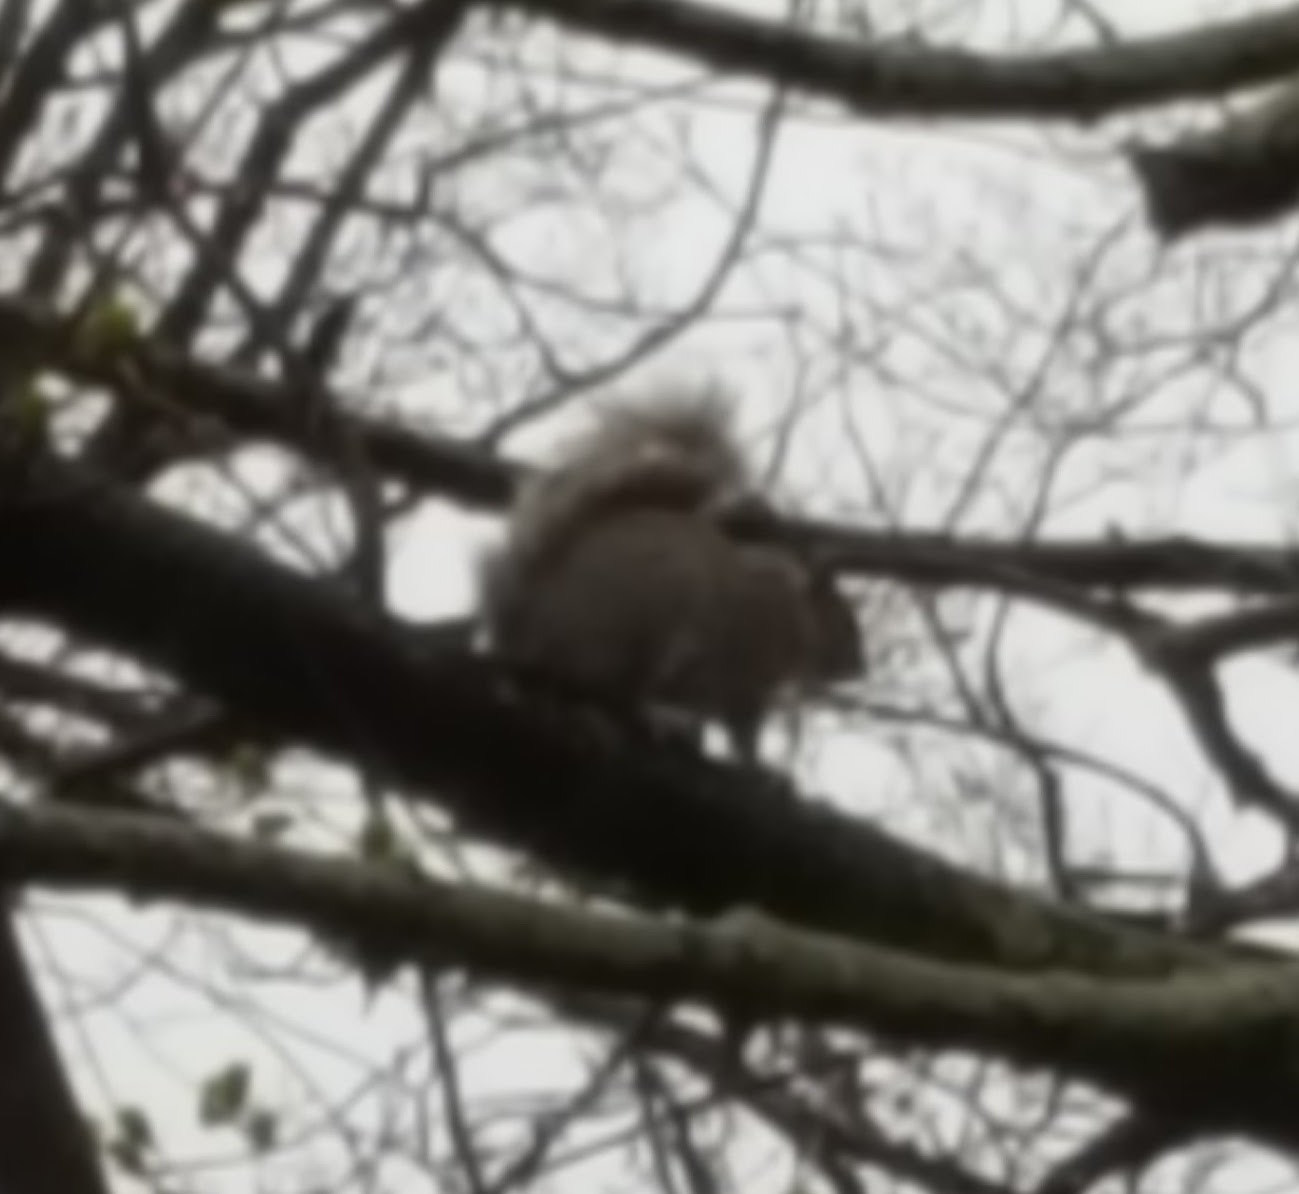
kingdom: Animalia
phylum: Chordata
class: Mammalia
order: Rodentia
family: Sciuridae
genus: Sciurus
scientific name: Sciurus carolinensis
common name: Eastern gray squirrel
